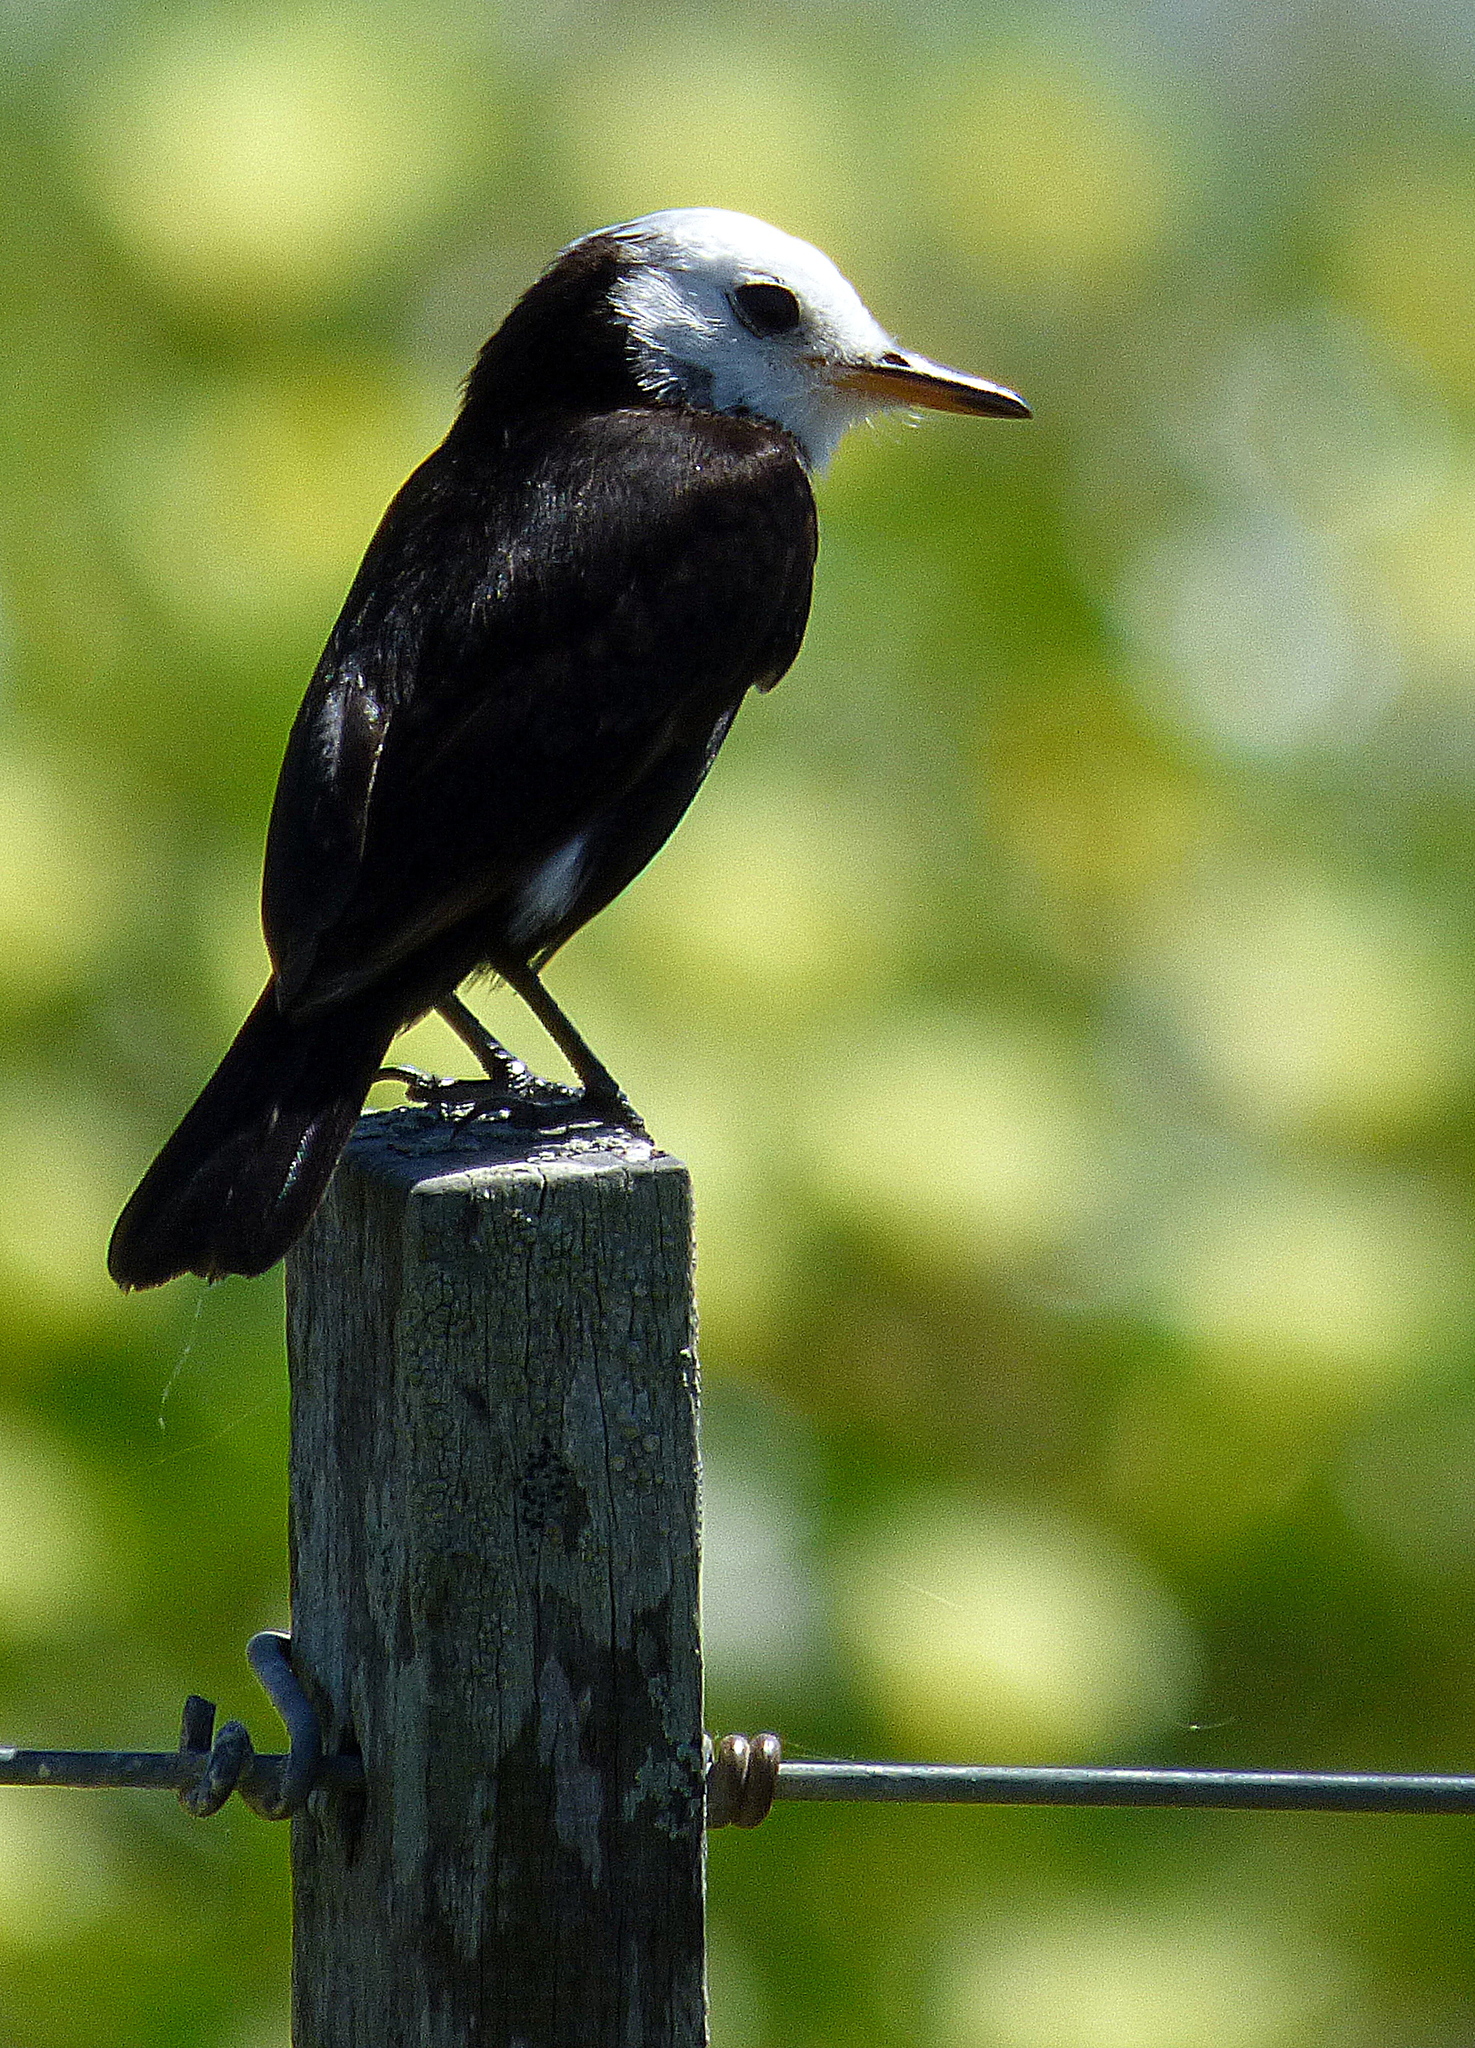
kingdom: Animalia
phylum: Chordata
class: Aves
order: Passeriformes
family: Tyrannidae
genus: Arundinicola
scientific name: Arundinicola leucocephala
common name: White-headed marsh tyrant
